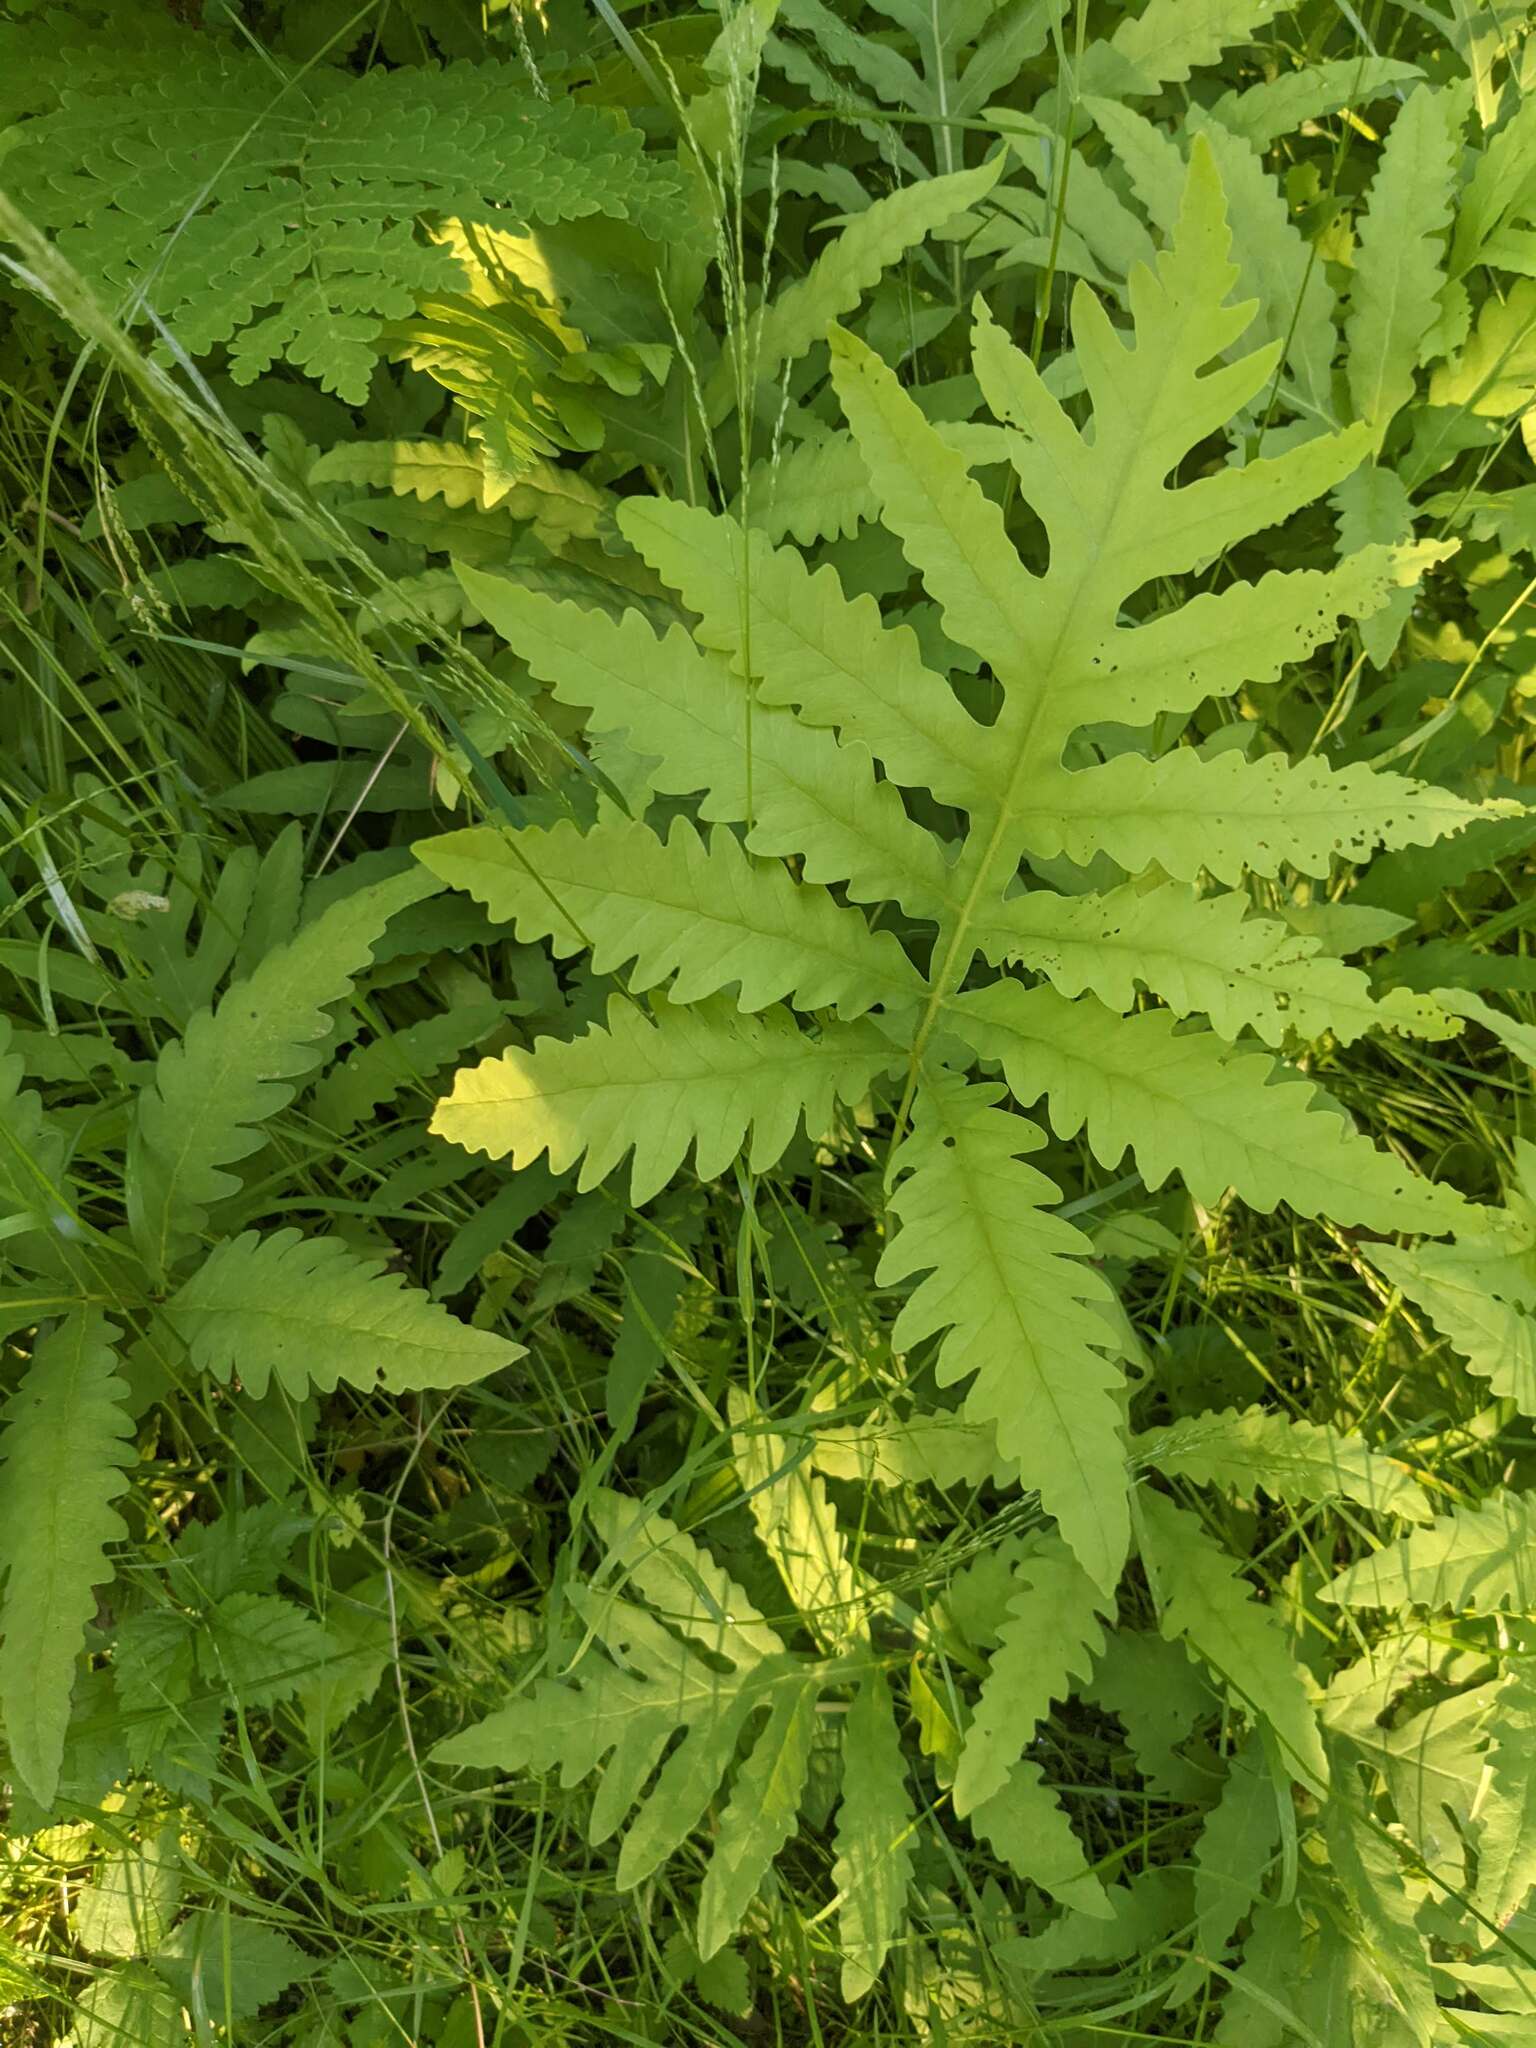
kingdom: Plantae
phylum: Tracheophyta
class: Polypodiopsida
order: Polypodiales
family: Onocleaceae
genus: Onoclea
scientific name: Onoclea sensibilis
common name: Sensitive fern
